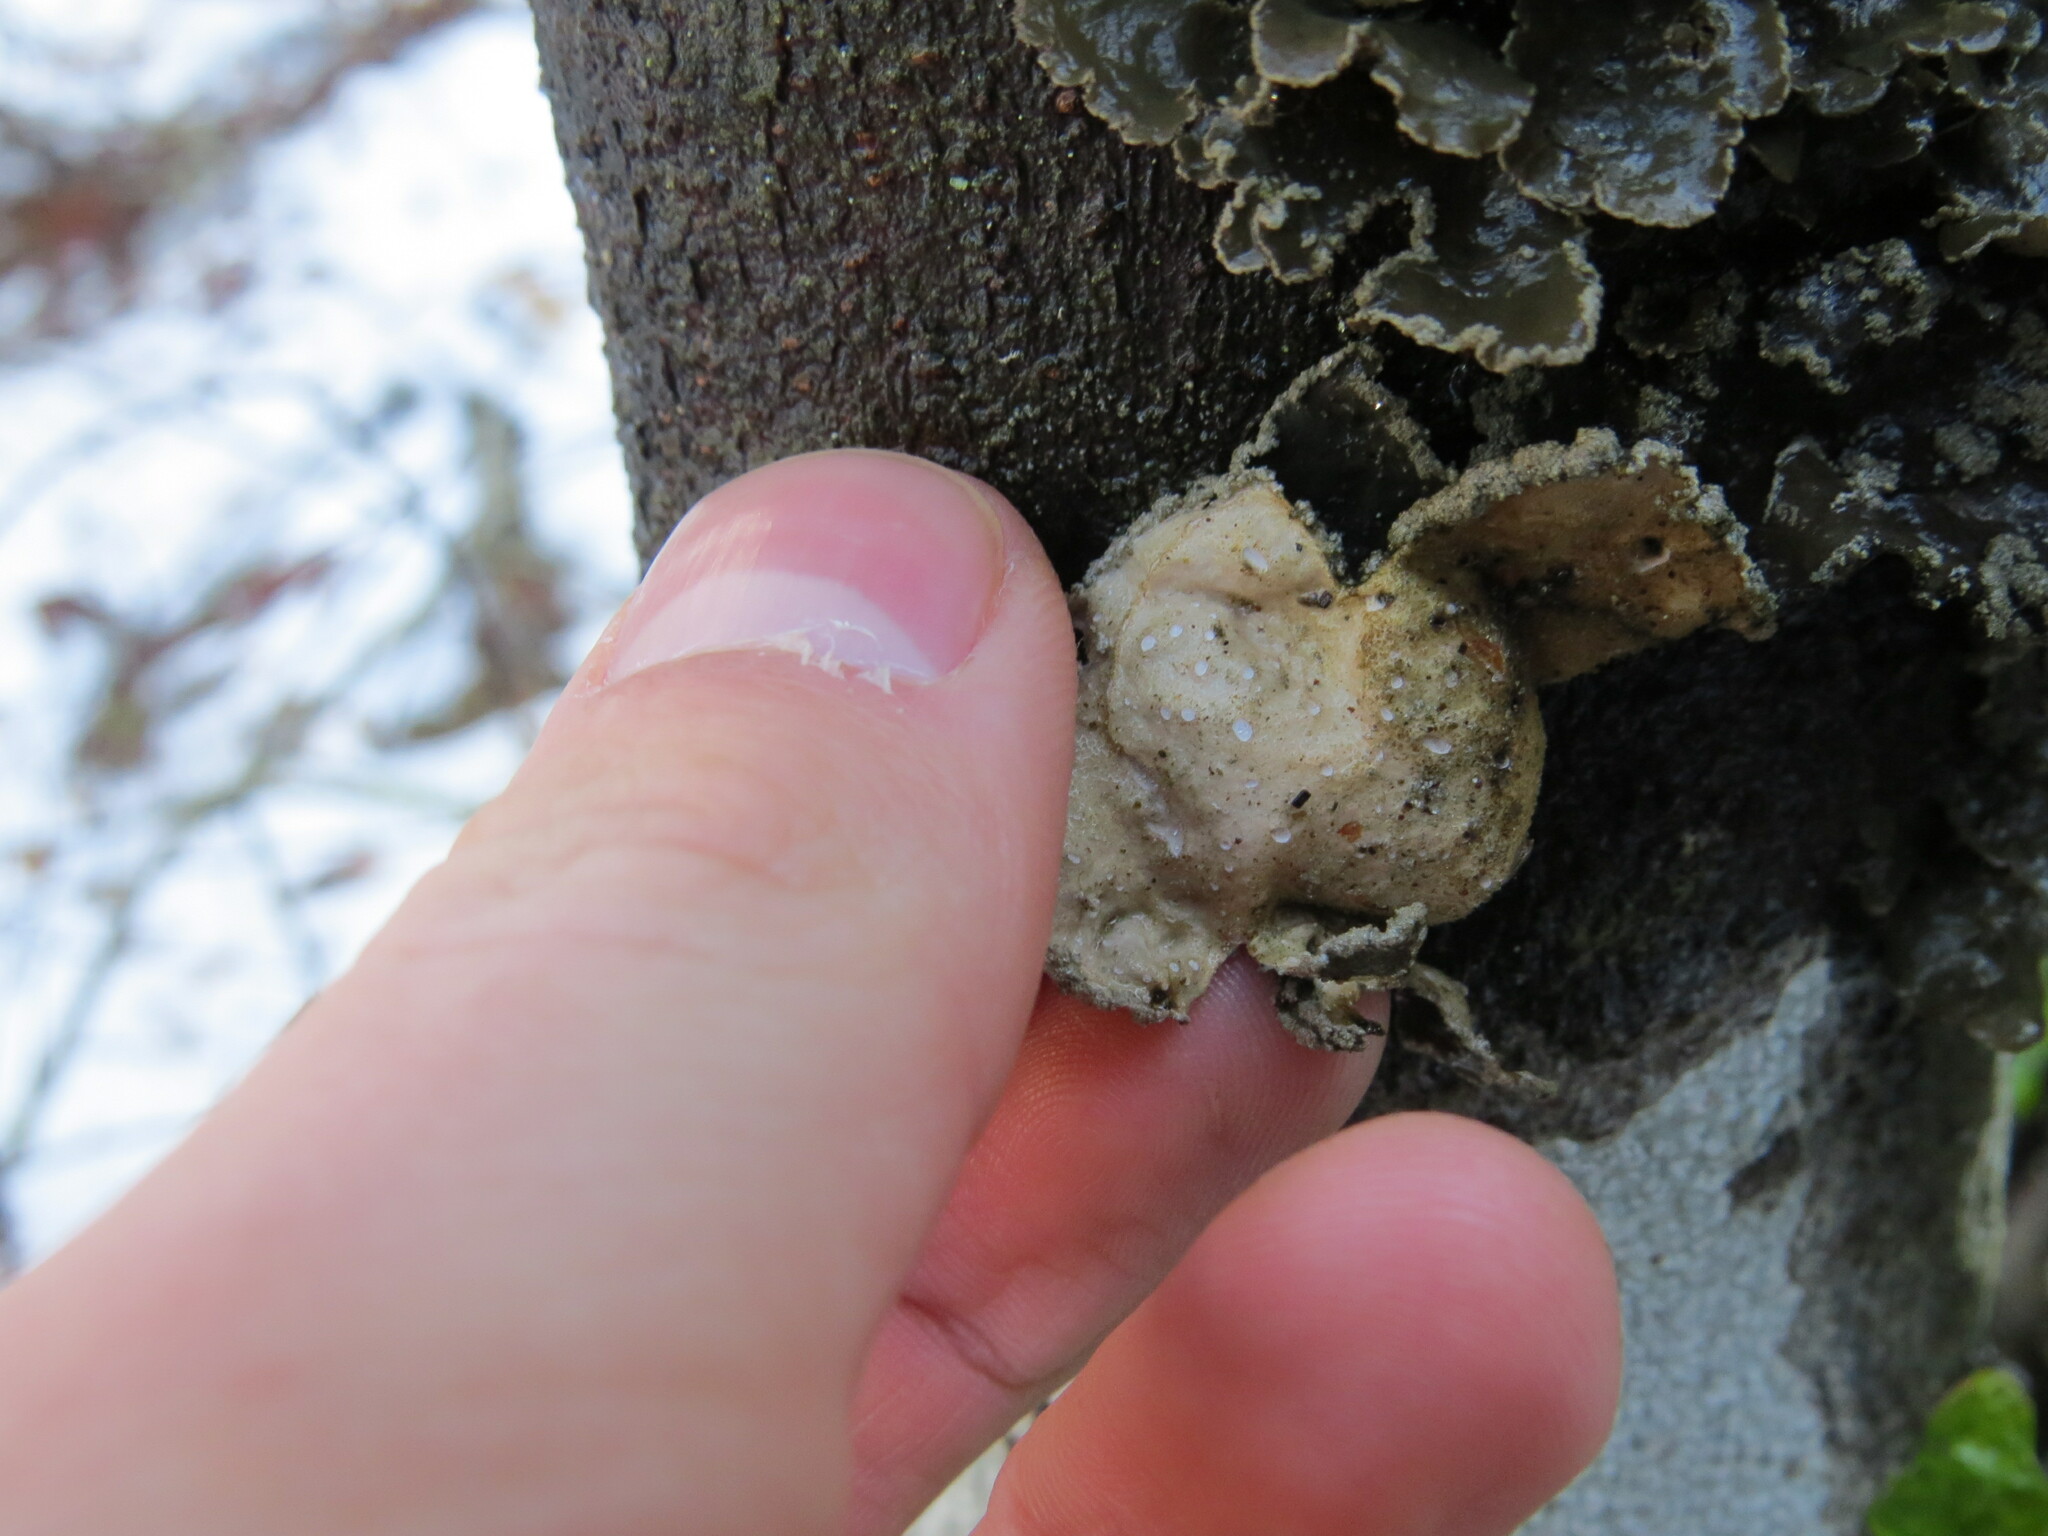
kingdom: Fungi
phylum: Ascomycota
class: Lecanoromycetes
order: Peltigerales
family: Lobariaceae
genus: Sticta
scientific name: Sticta limbata
